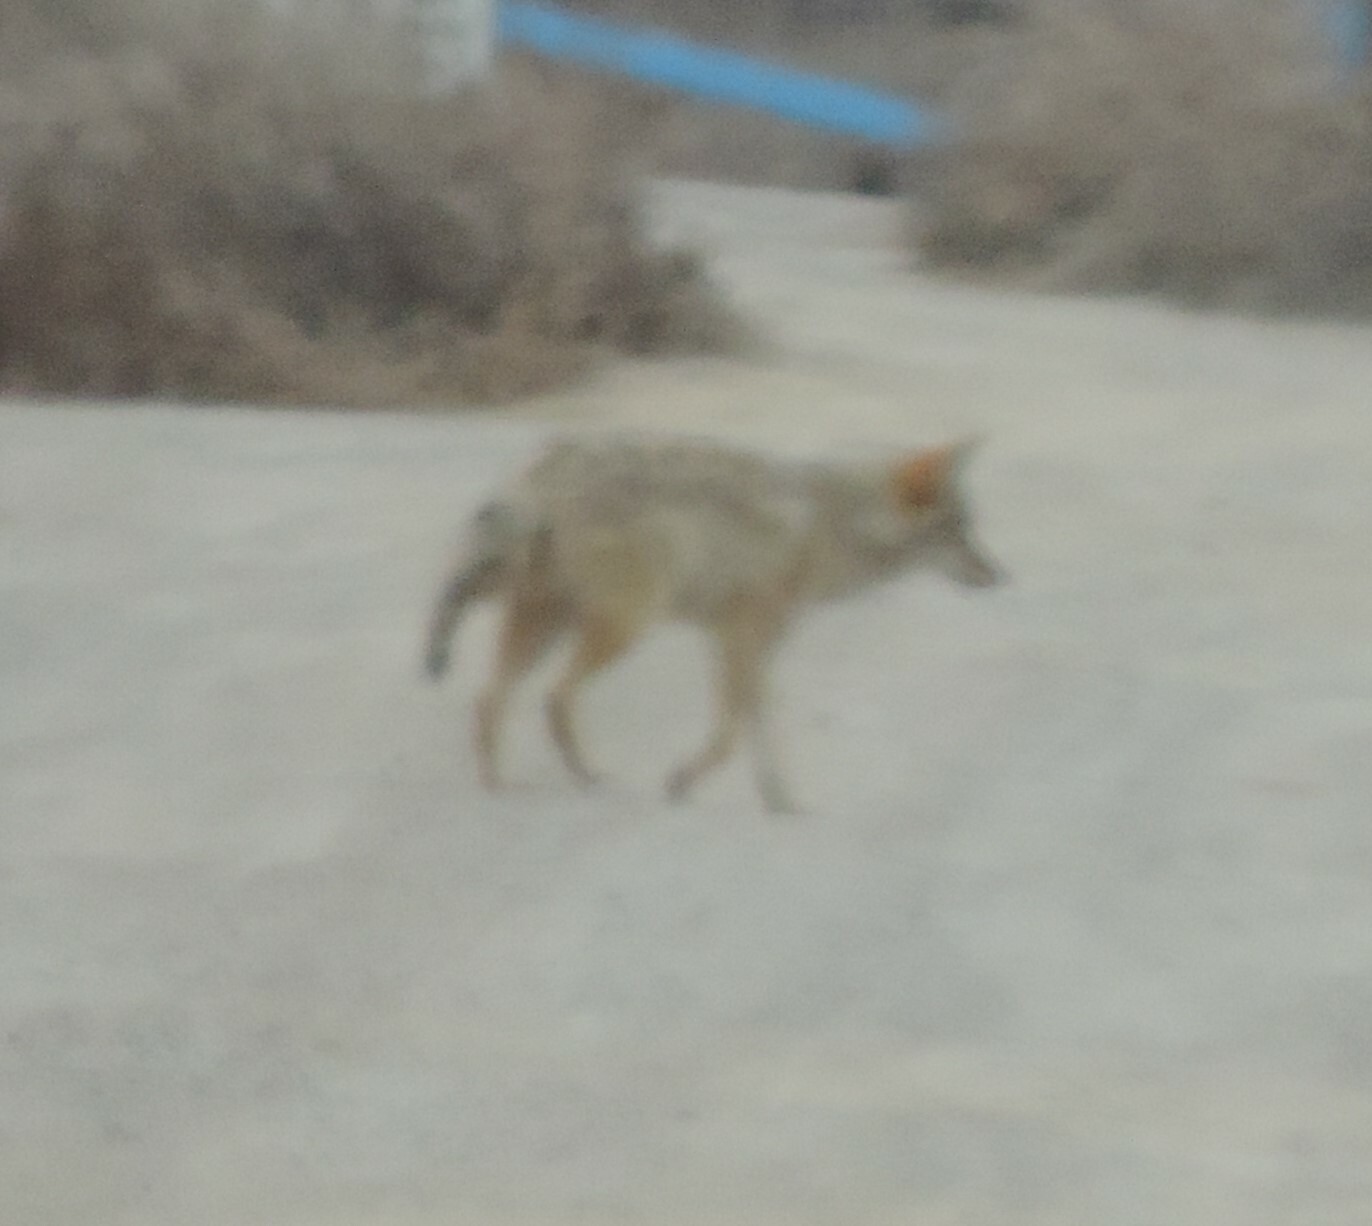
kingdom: Animalia
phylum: Chordata
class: Mammalia
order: Carnivora
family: Canidae
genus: Canis
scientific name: Canis latrans
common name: Coyote
